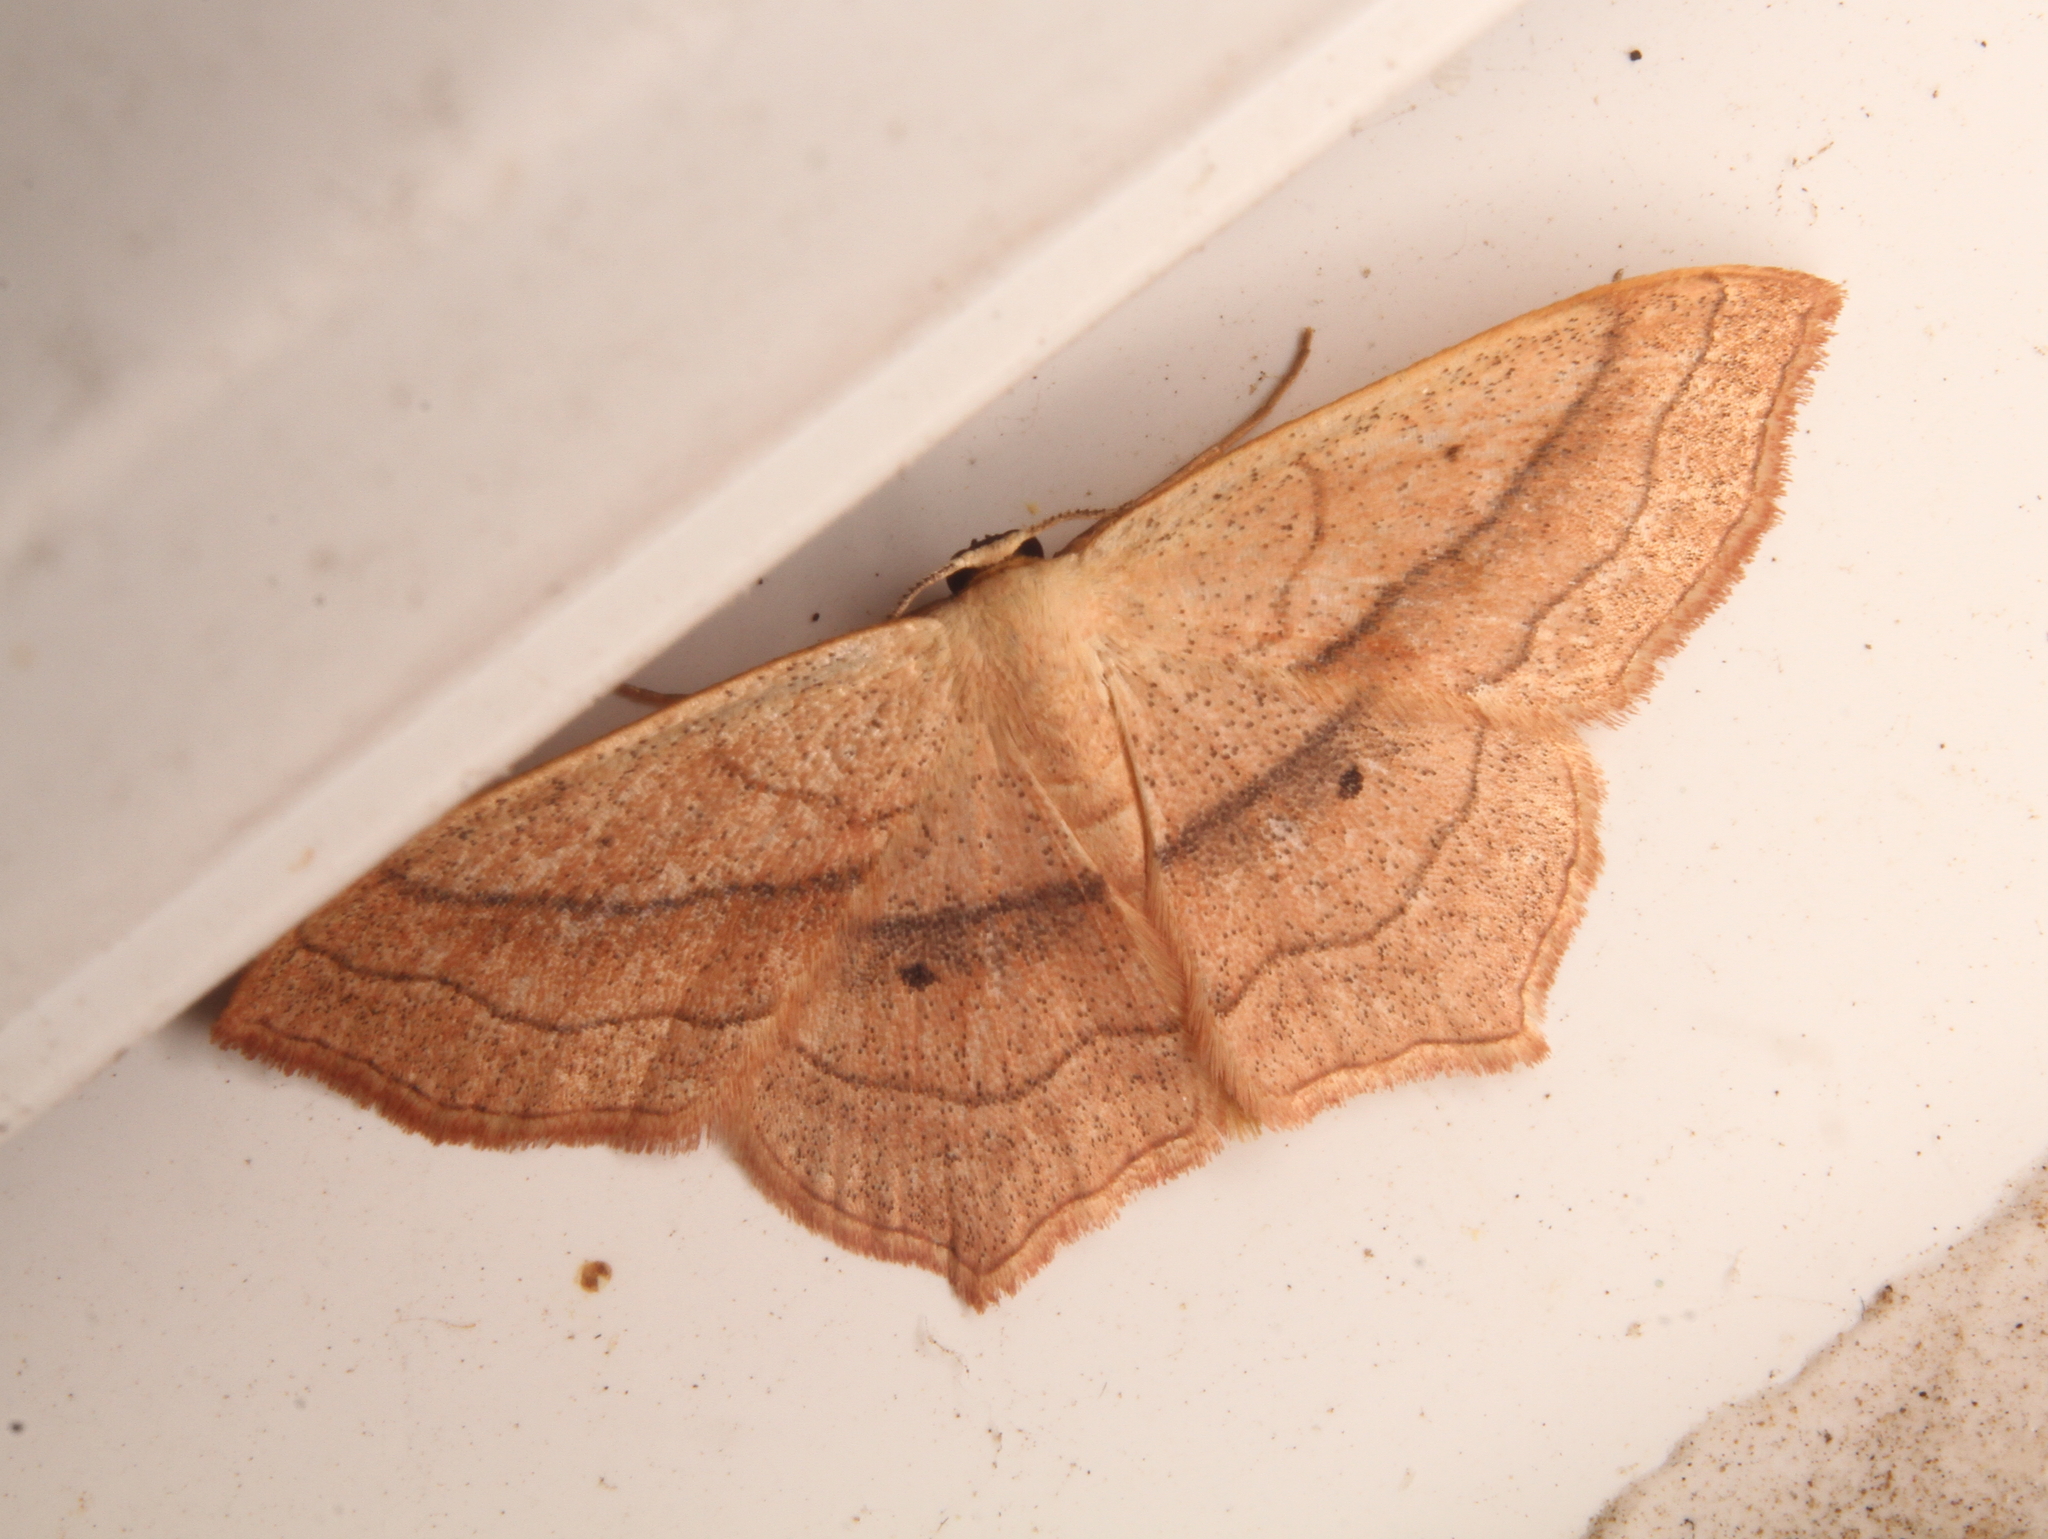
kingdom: Animalia
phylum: Arthropoda
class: Insecta
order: Lepidoptera
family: Geometridae
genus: Scopula
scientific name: Scopula imitaria
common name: Small blood-vein
